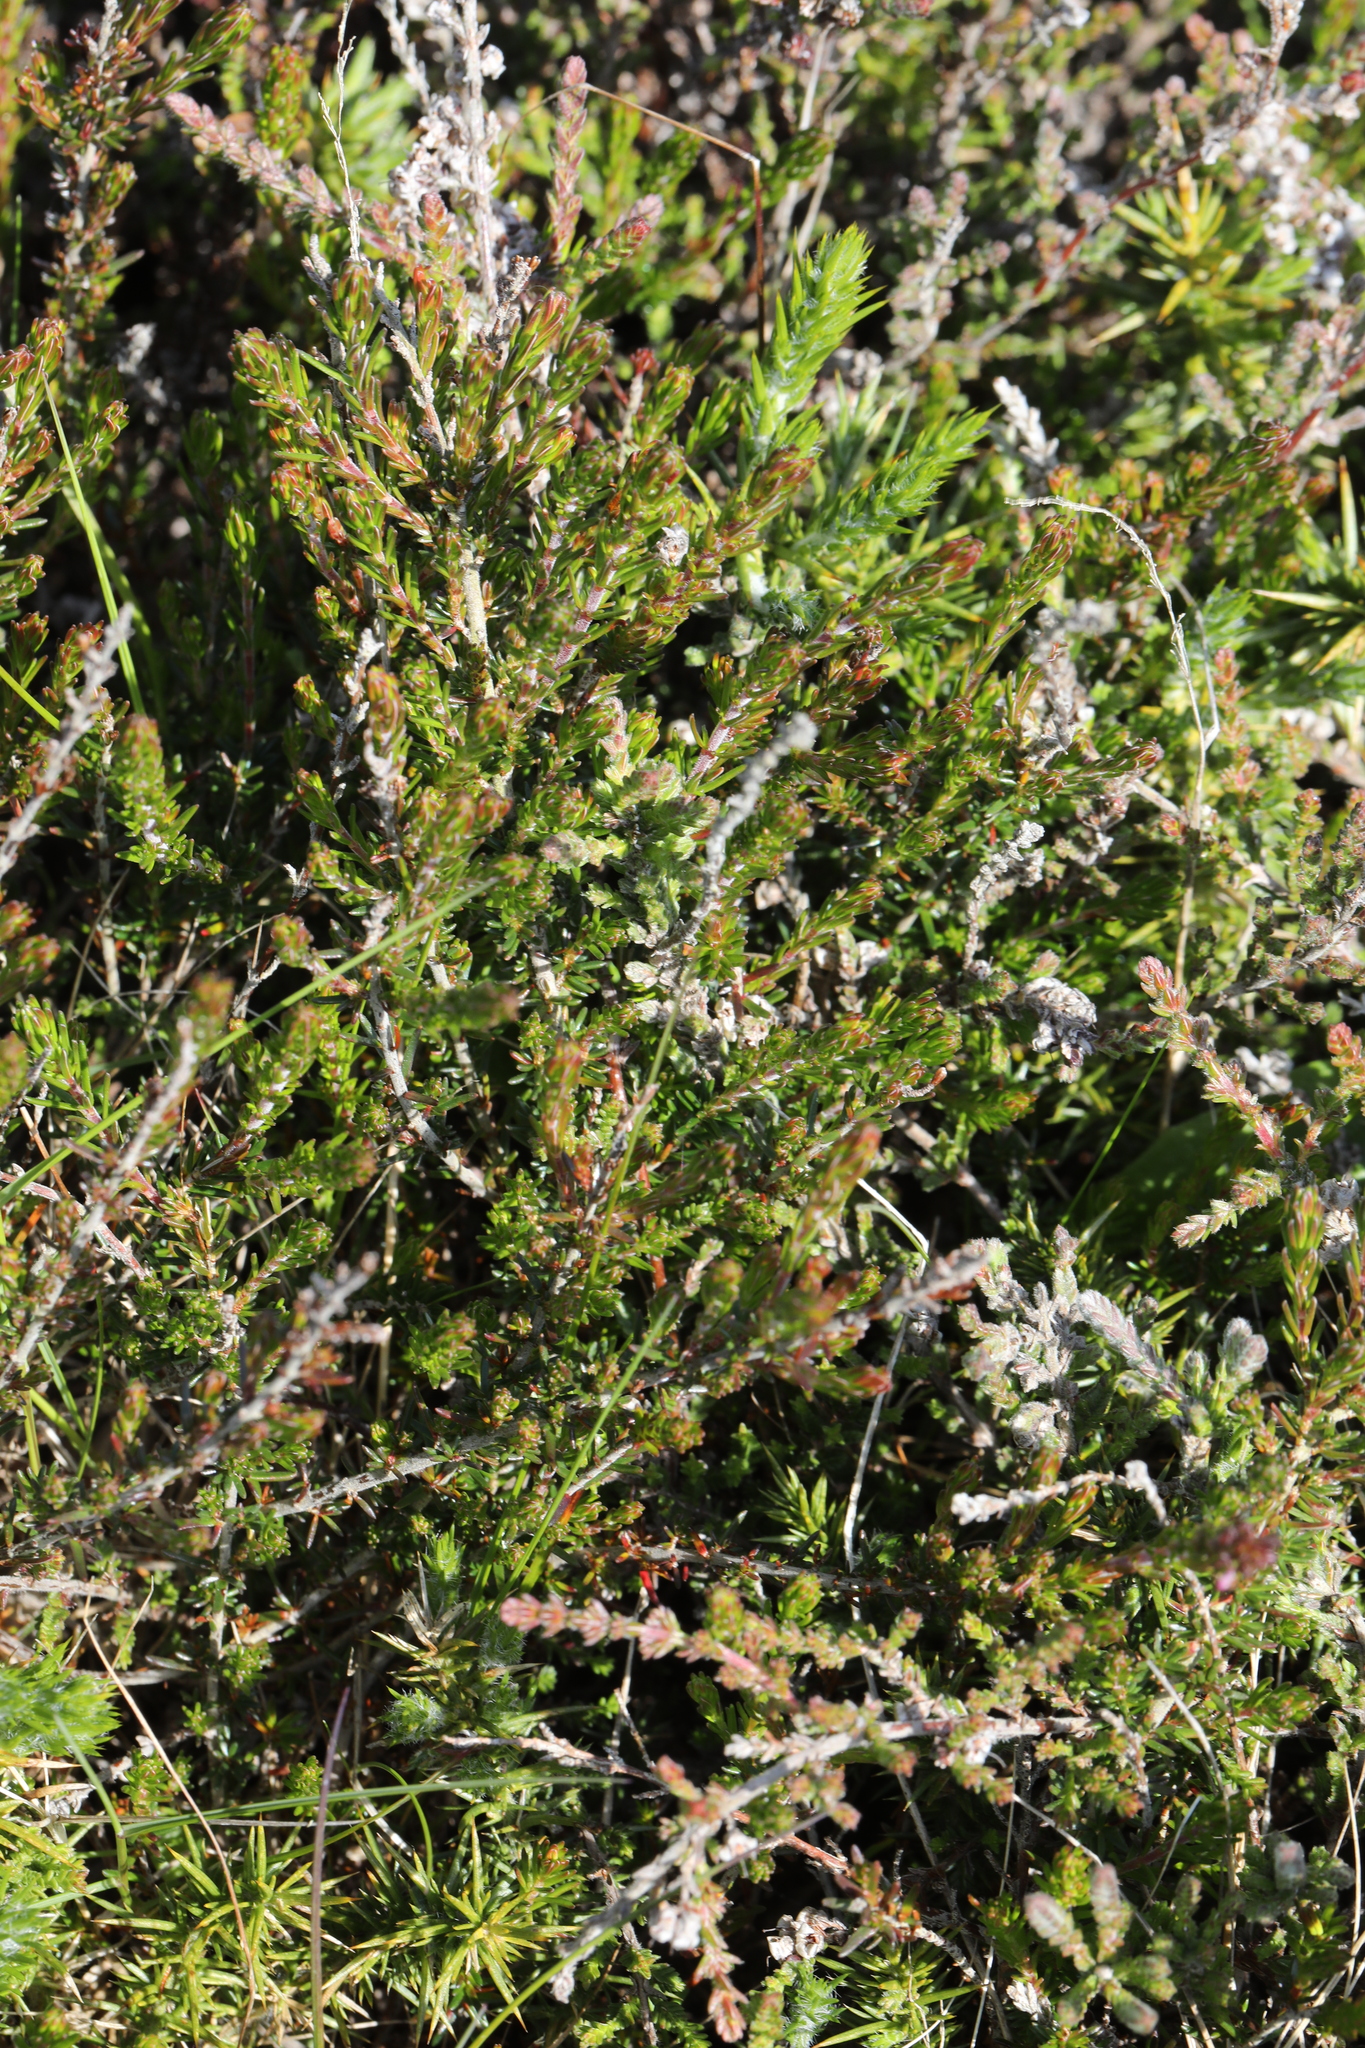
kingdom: Plantae
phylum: Tracheophyta
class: Magnoliopsida
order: Ericales
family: Ericaceae
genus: Calluna
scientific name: Calluna vulgaris
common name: Heather
